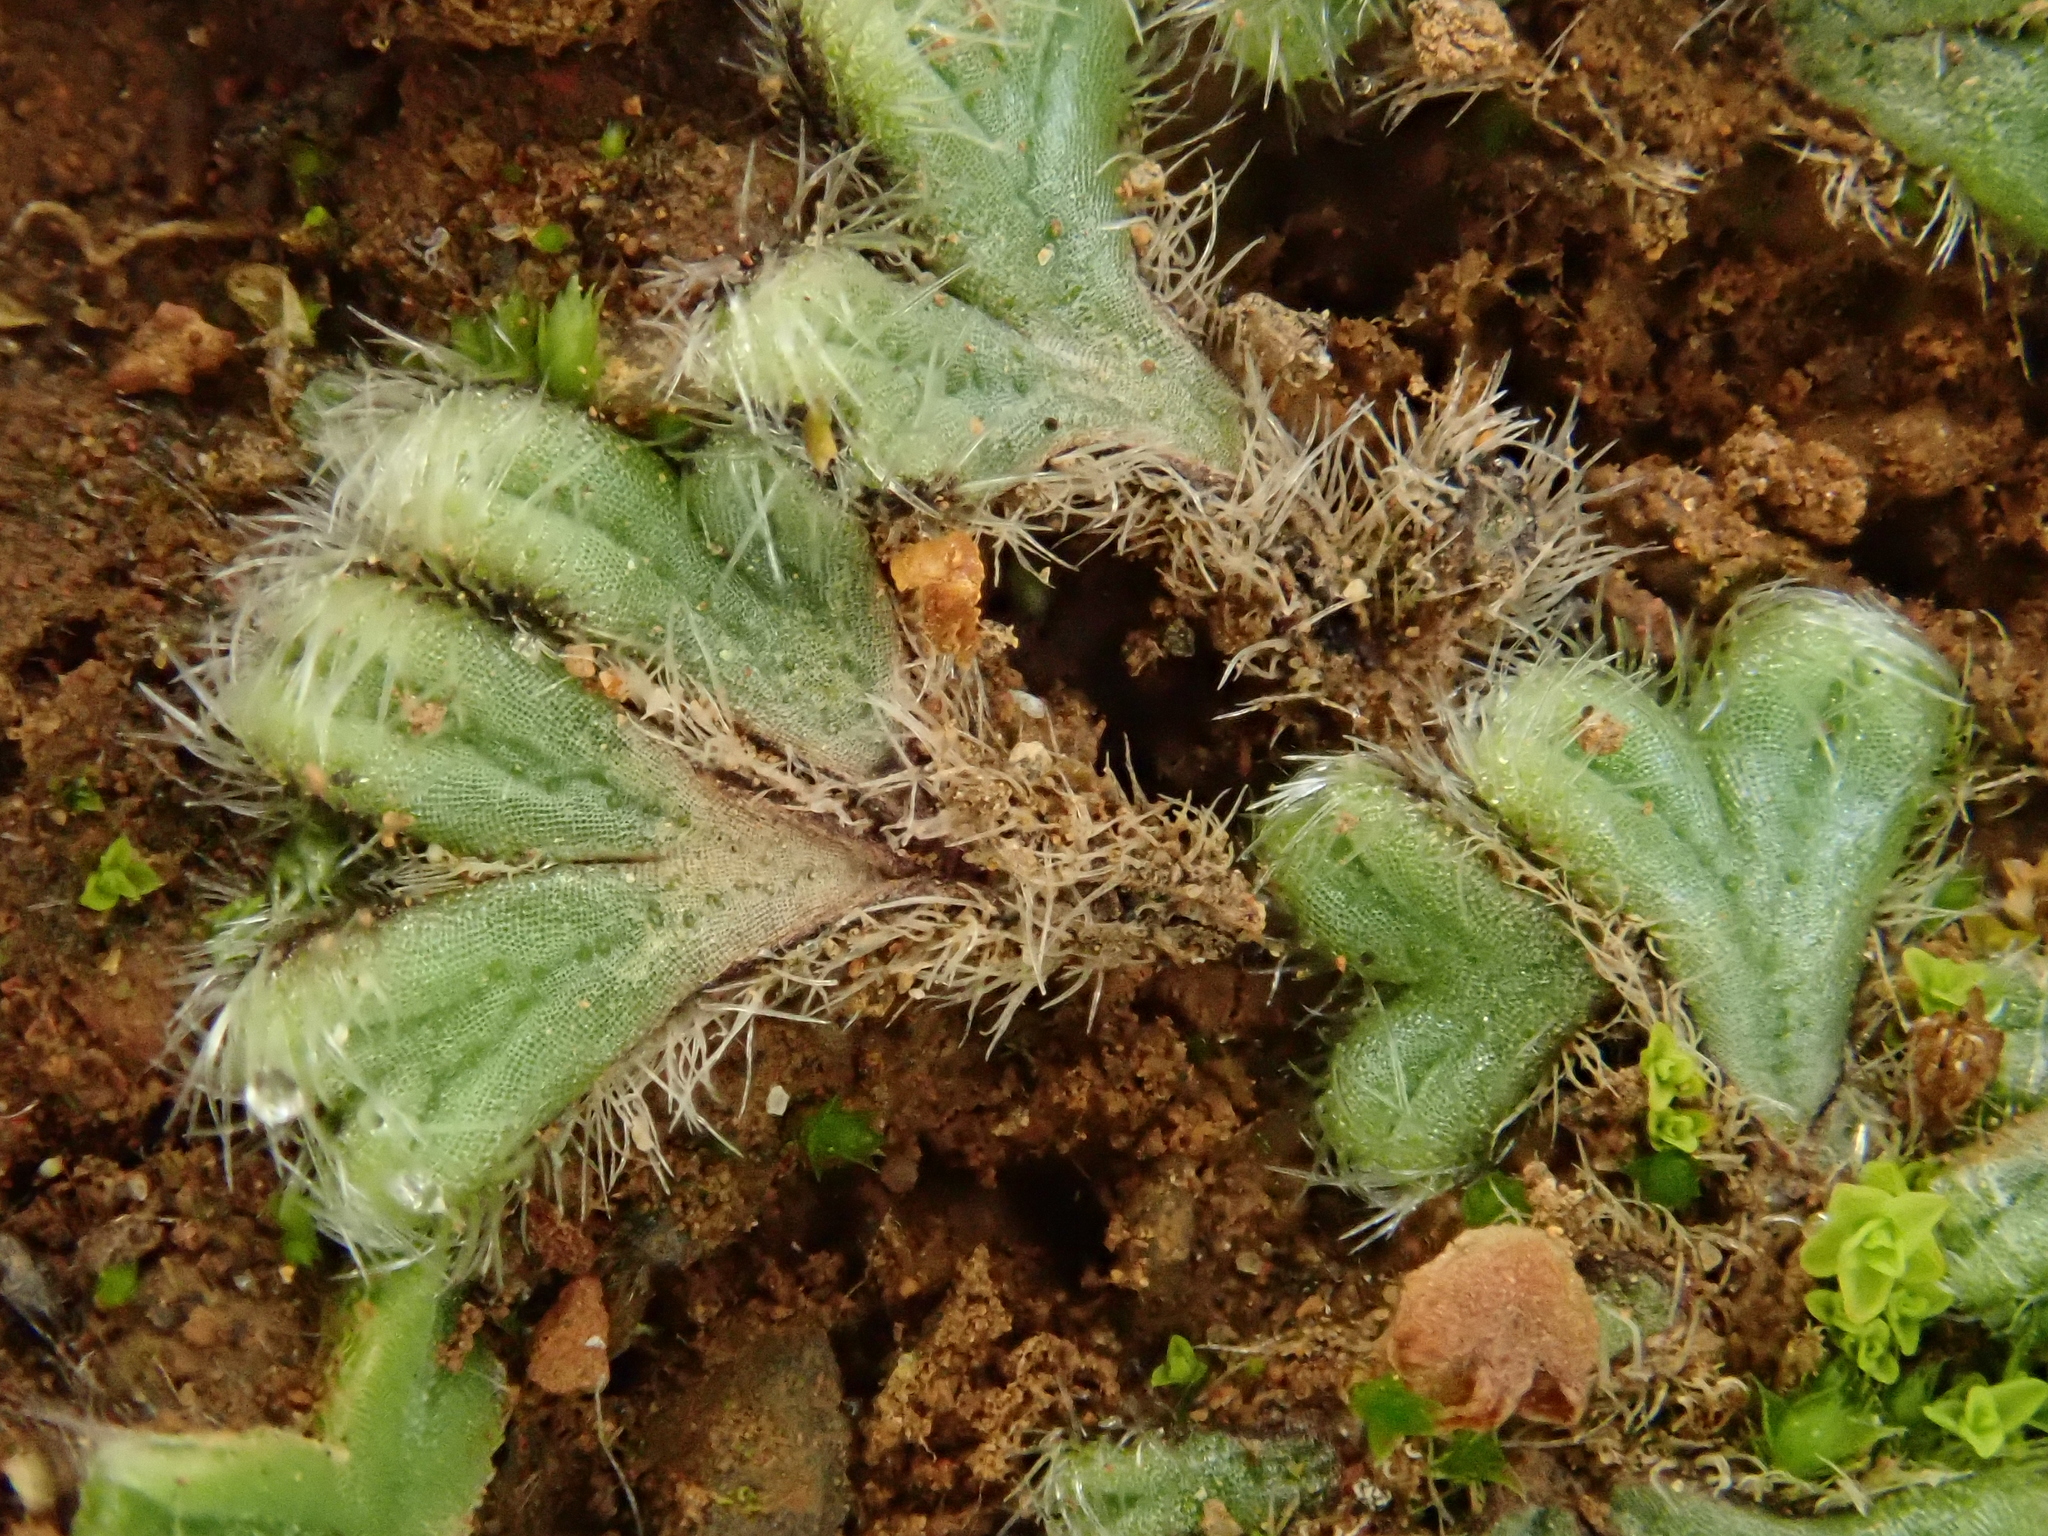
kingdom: Plantae
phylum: Marchantiophyta
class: Marchantiopsida
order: Marchantiales
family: Ricciaceae
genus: Riccia
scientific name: Riccia ciliata
